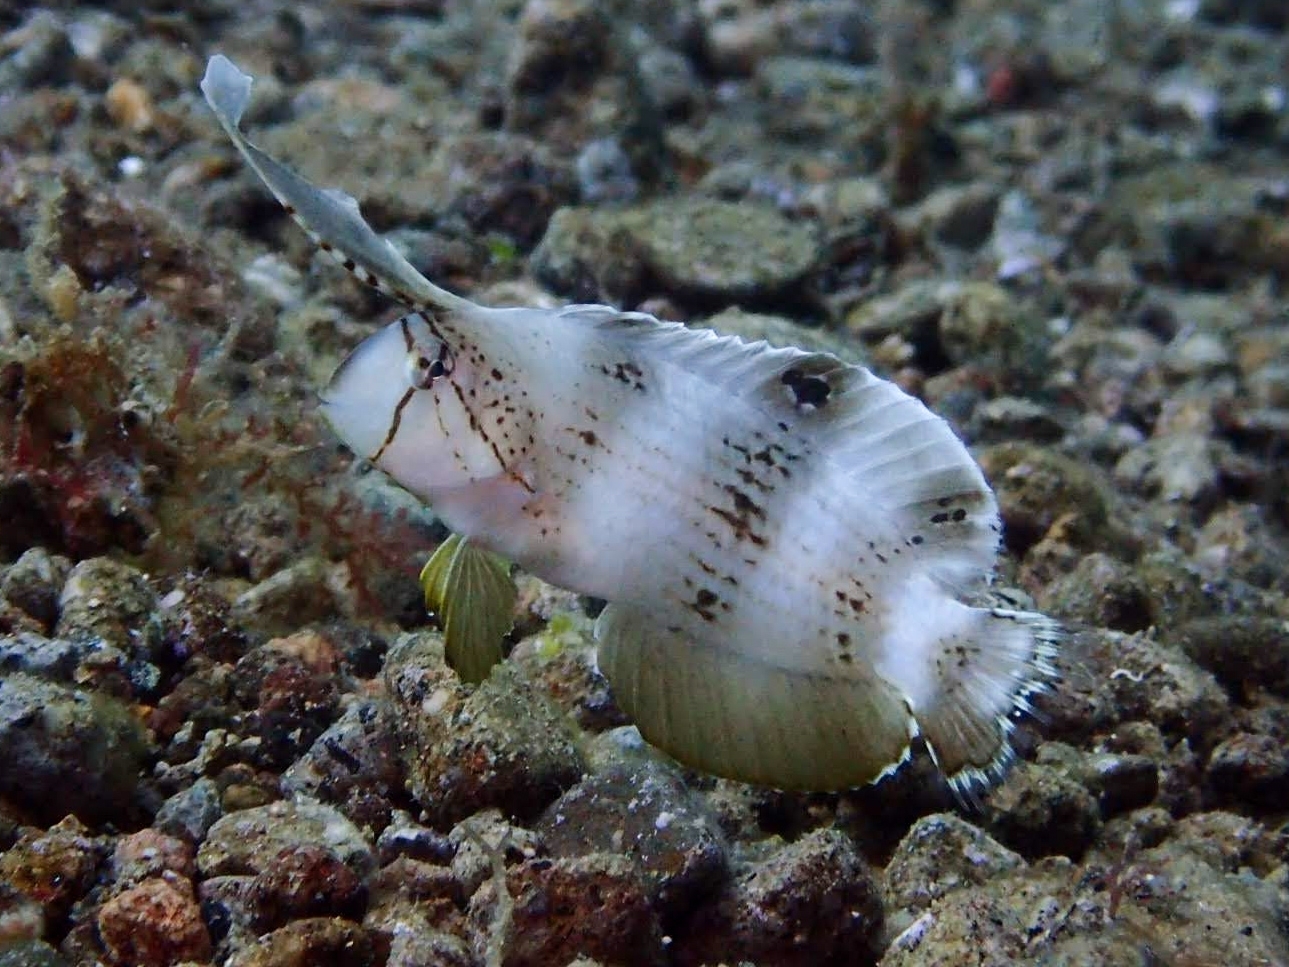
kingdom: Animalia
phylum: Chordata
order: Perciformes
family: Labridae
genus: Iniistius
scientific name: Iniistius pavo
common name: Peacock wrasse
